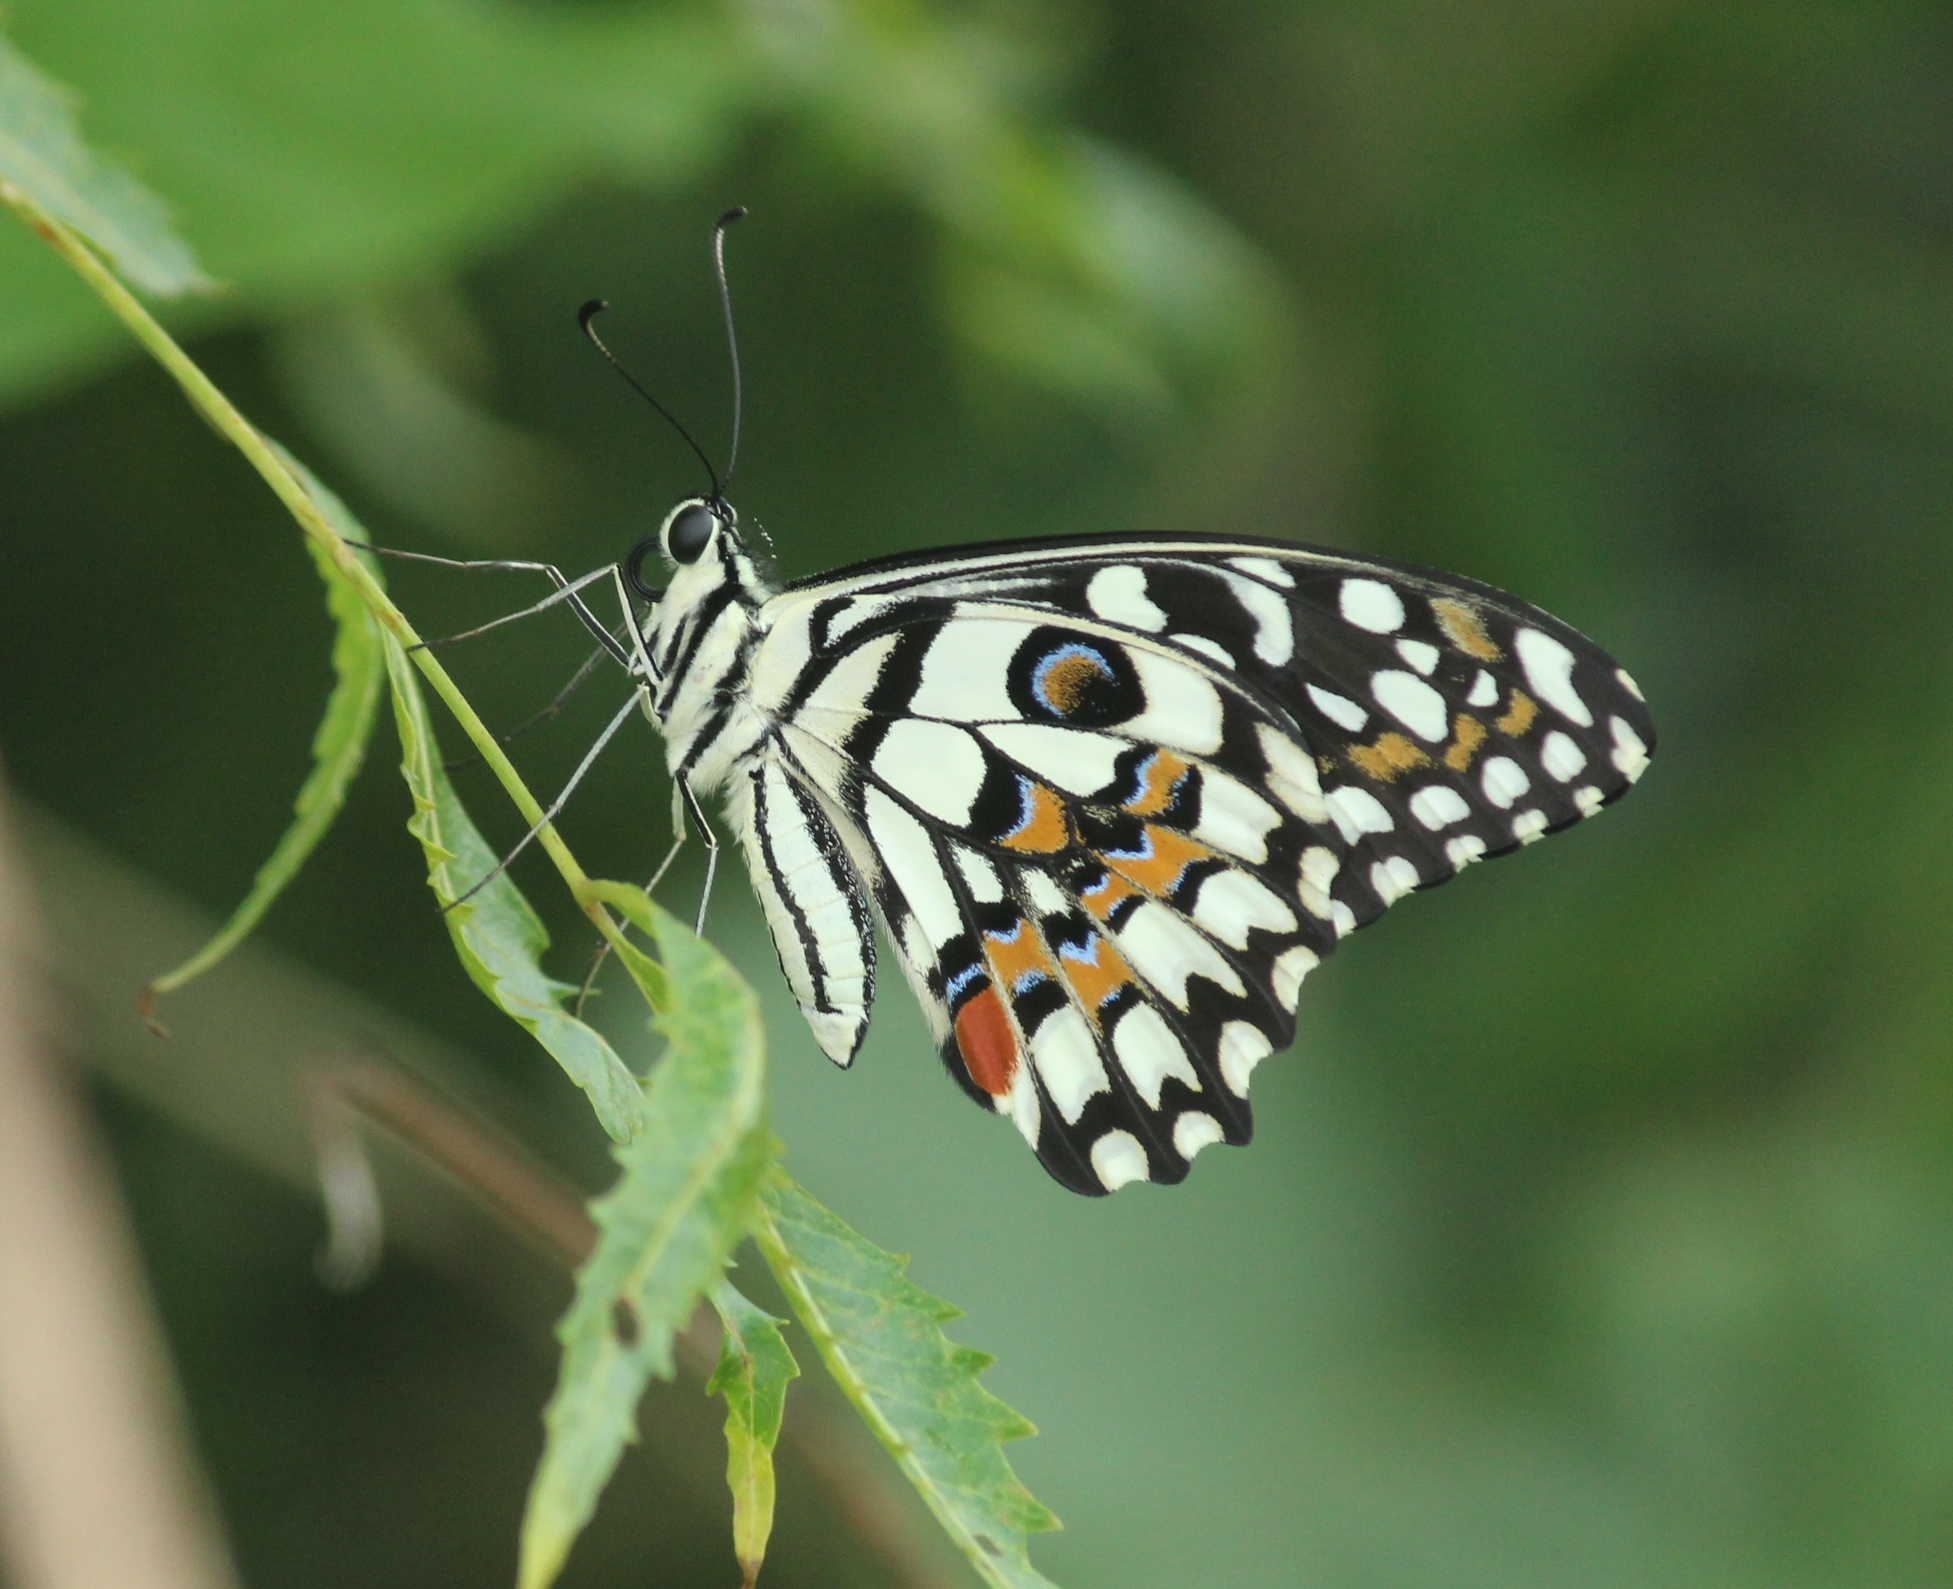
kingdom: Animalia
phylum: Arthropoda
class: Insecta
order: Lepidoptera
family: Papilionidae
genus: Papilio
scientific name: Papilio demoleus
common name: Lime butterfly
